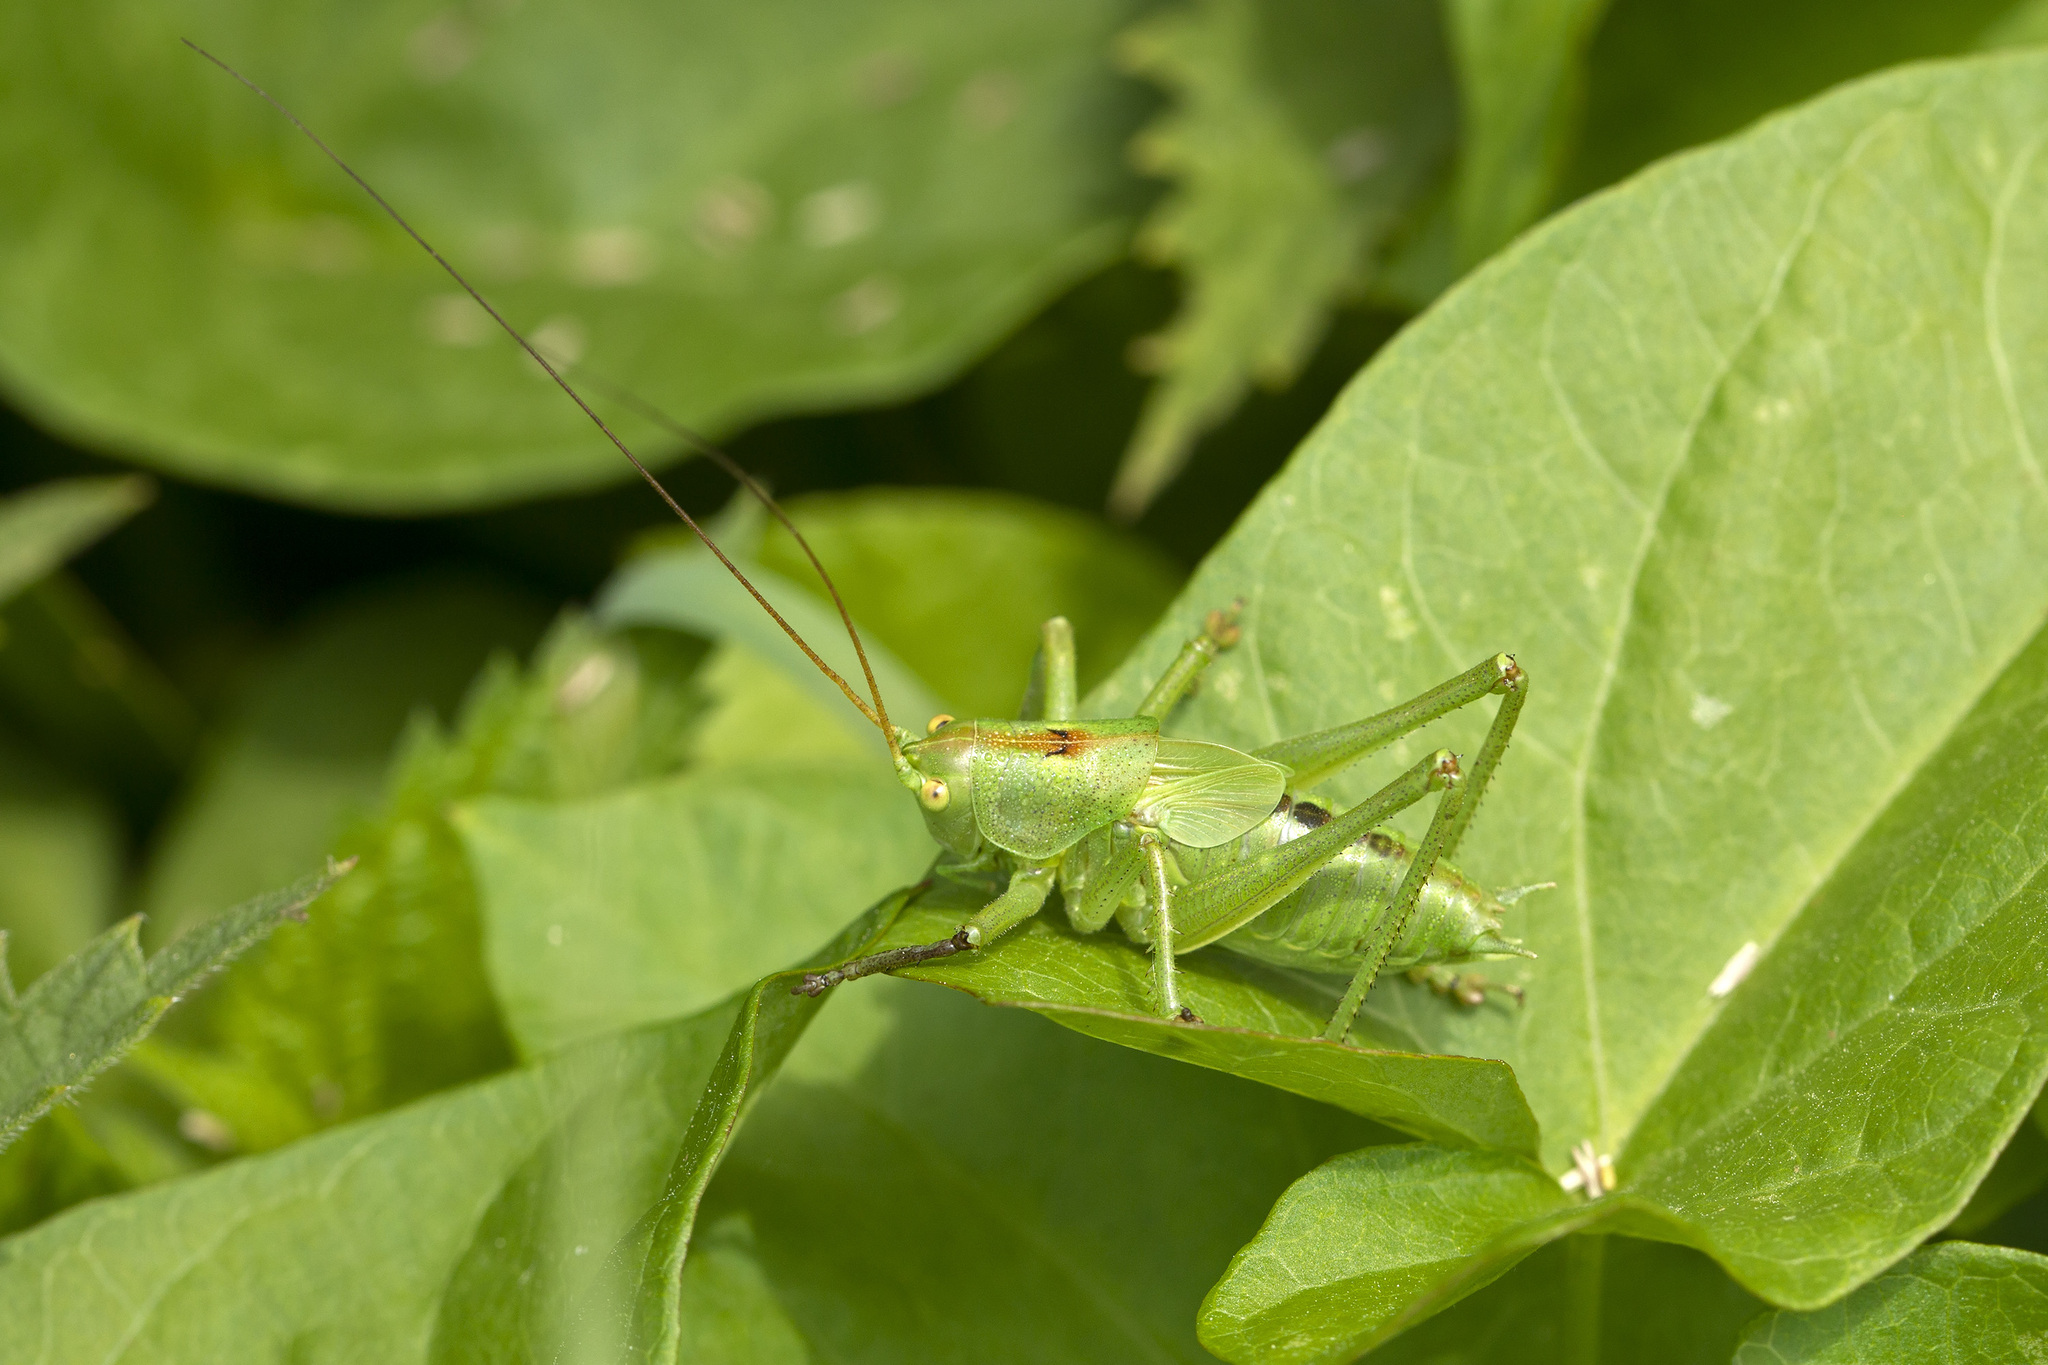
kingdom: Animalia
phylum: Arthropoda
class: Insecta
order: Orthoptera
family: Tettigoniidae
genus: Tettigonia
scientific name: Tettigonia cantans
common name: Upland green bush-cricket
